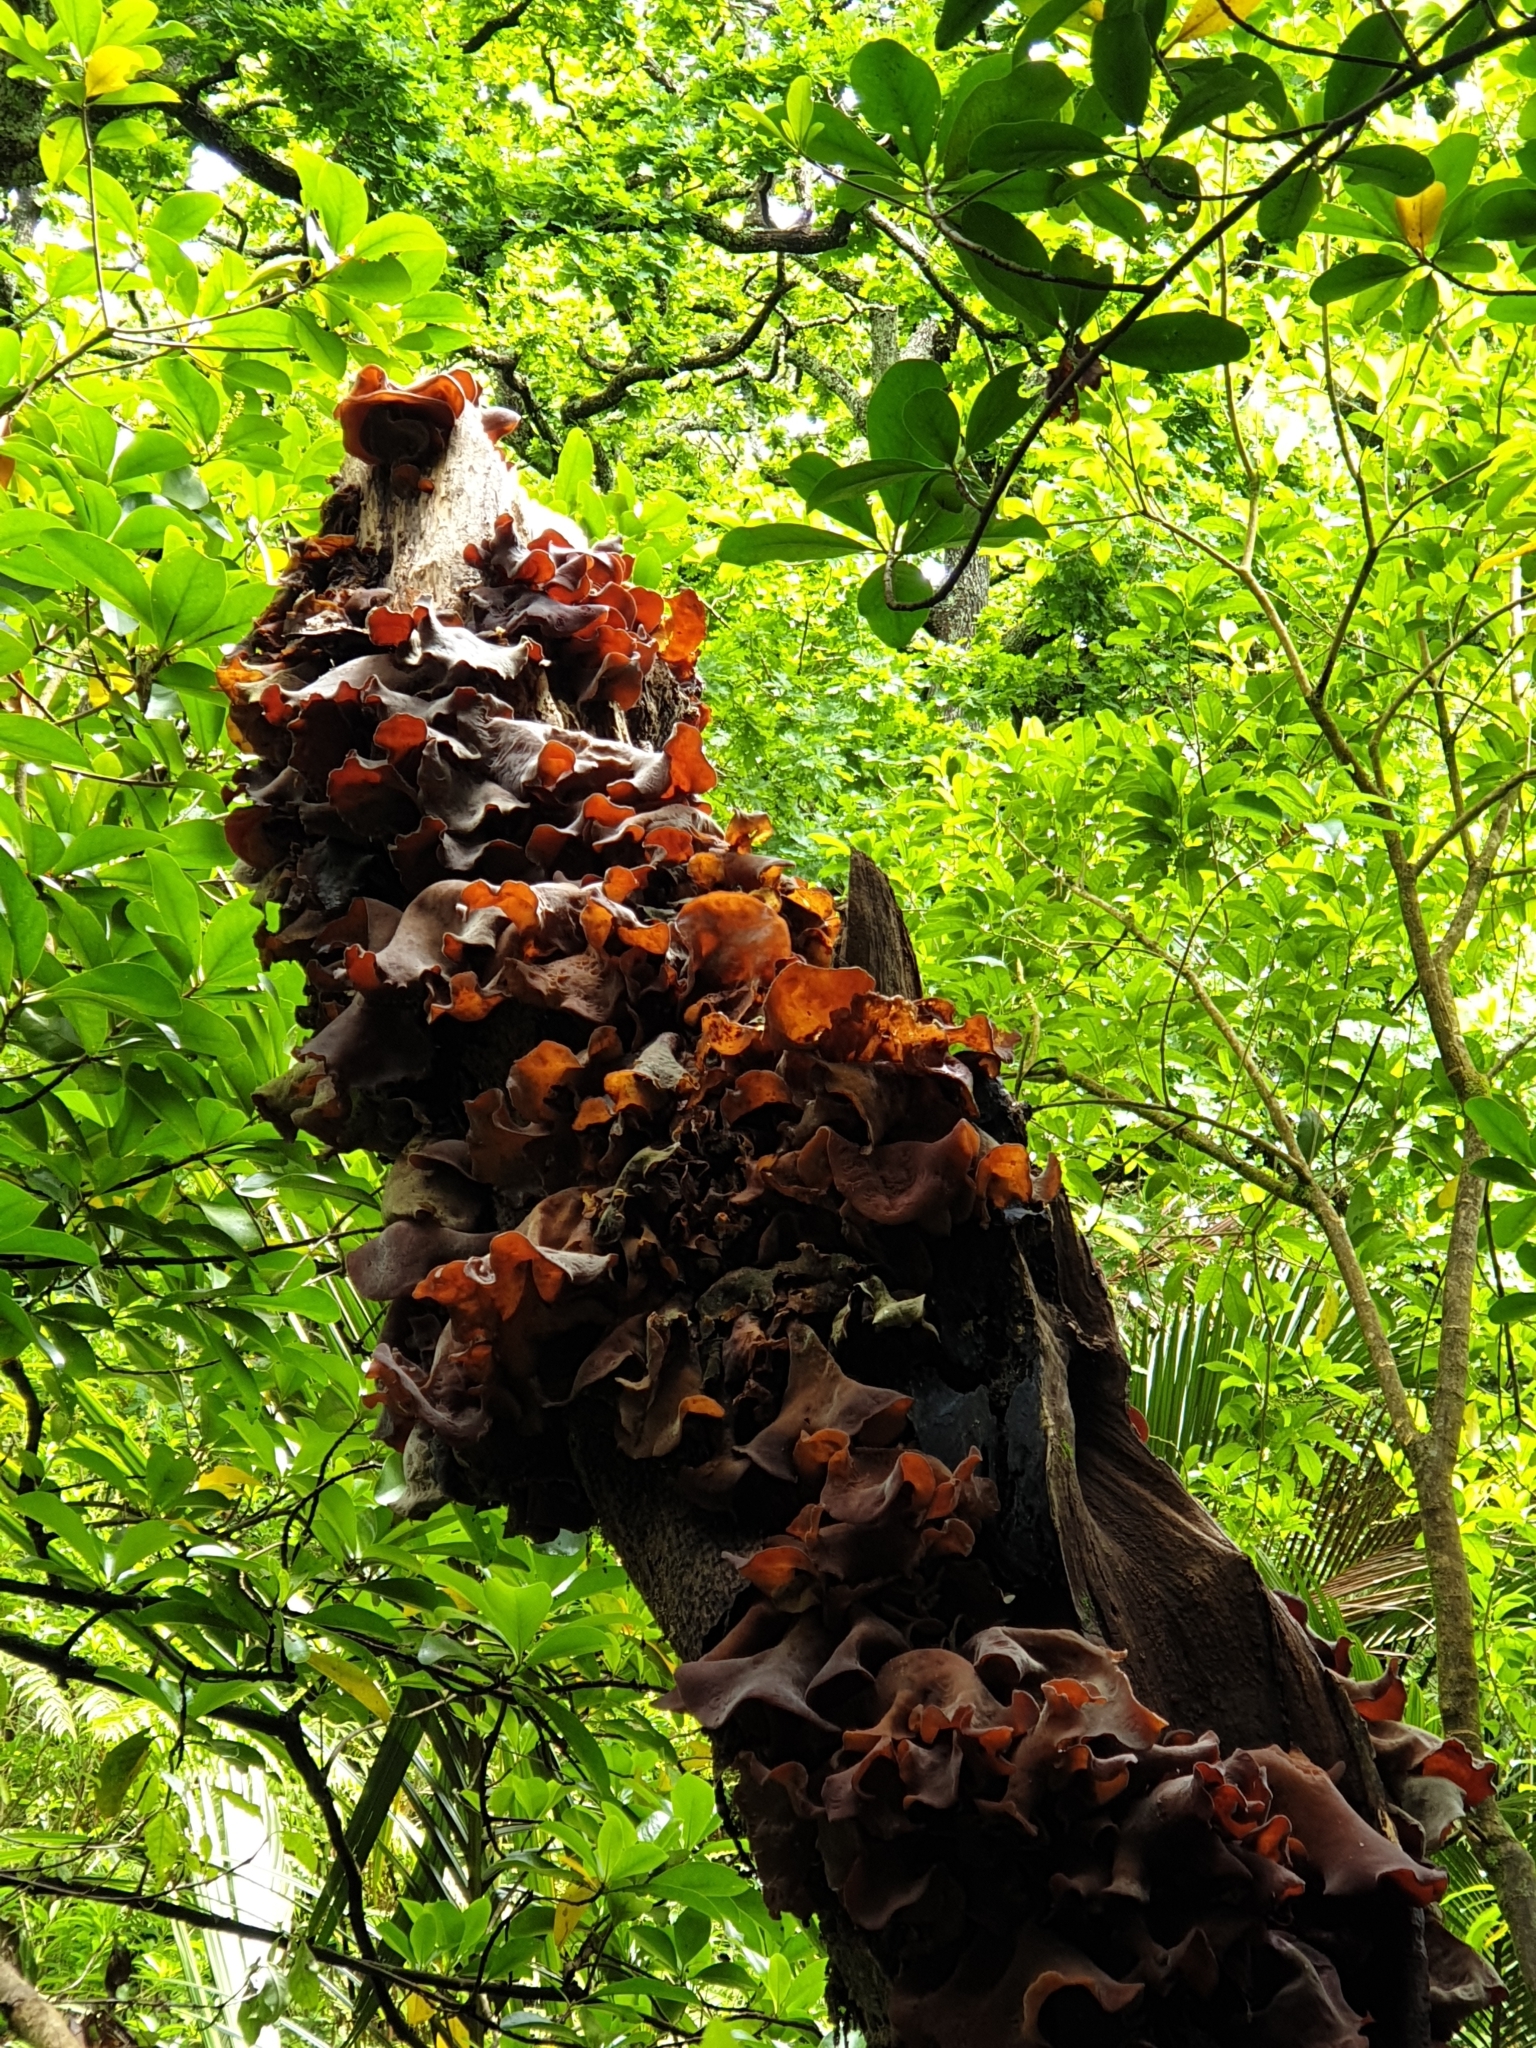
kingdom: Fungi
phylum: Basidiomycota
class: Agaricomycetes
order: Auriculariales
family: Auriculariaceae
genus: Auricularia
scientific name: Auricularia cornea
